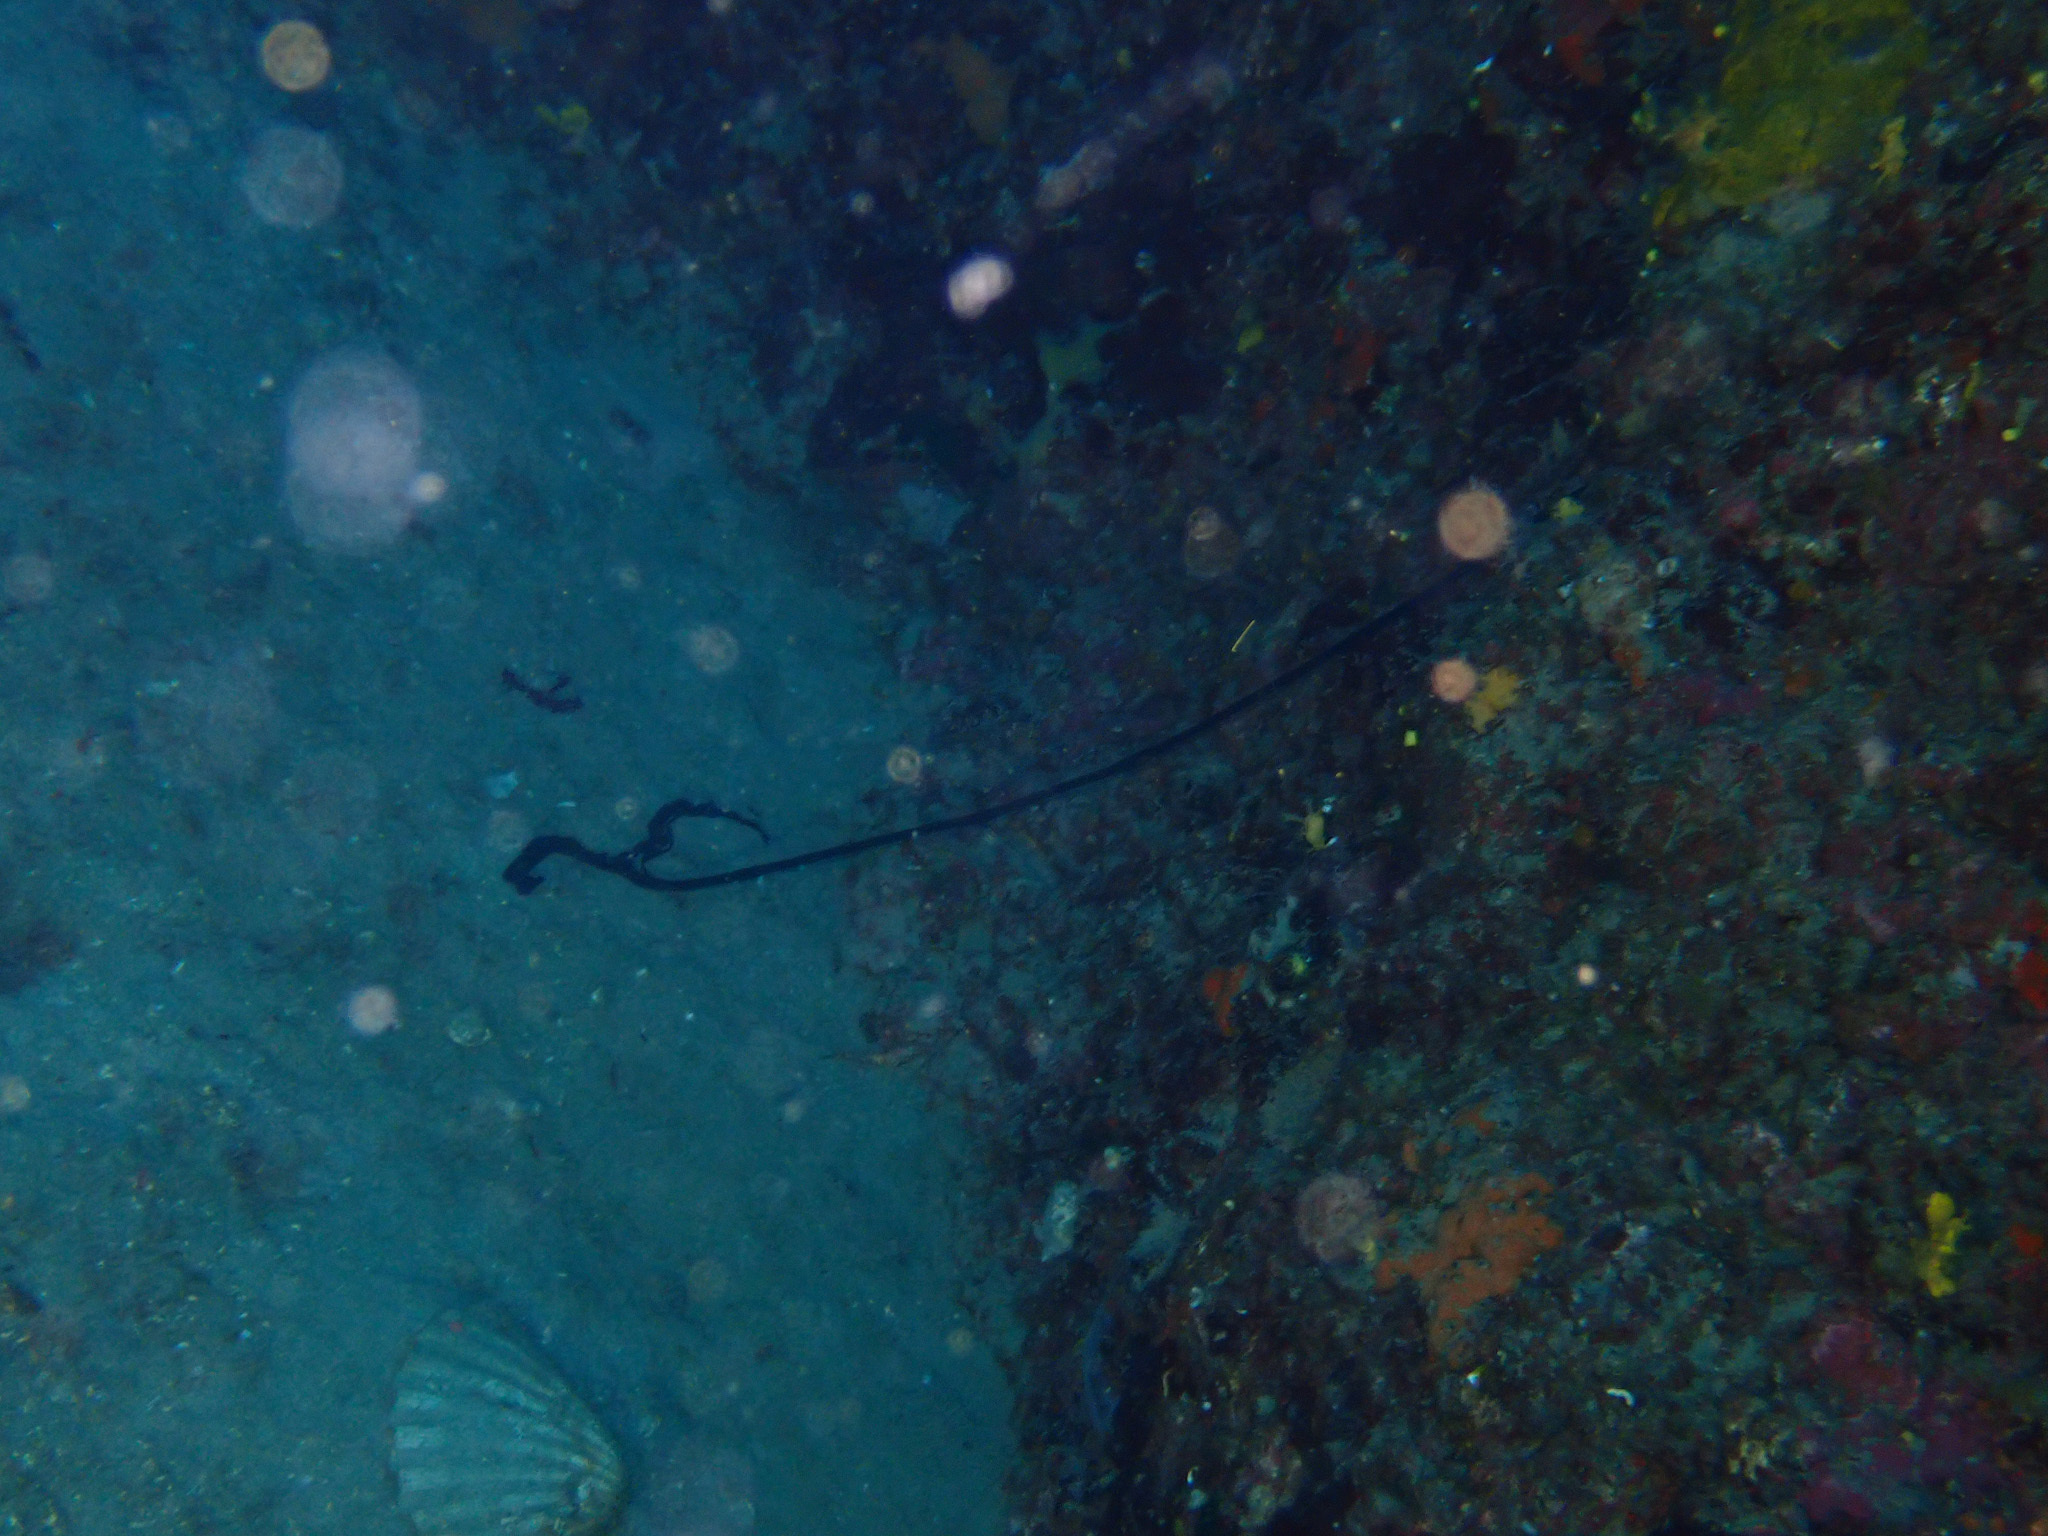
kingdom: Animalia
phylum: Annelida
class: Polychaeta
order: Echiuroidea
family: Bonelliidae
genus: Bonellia
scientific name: Bonellia viridis
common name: Green spoon worm
